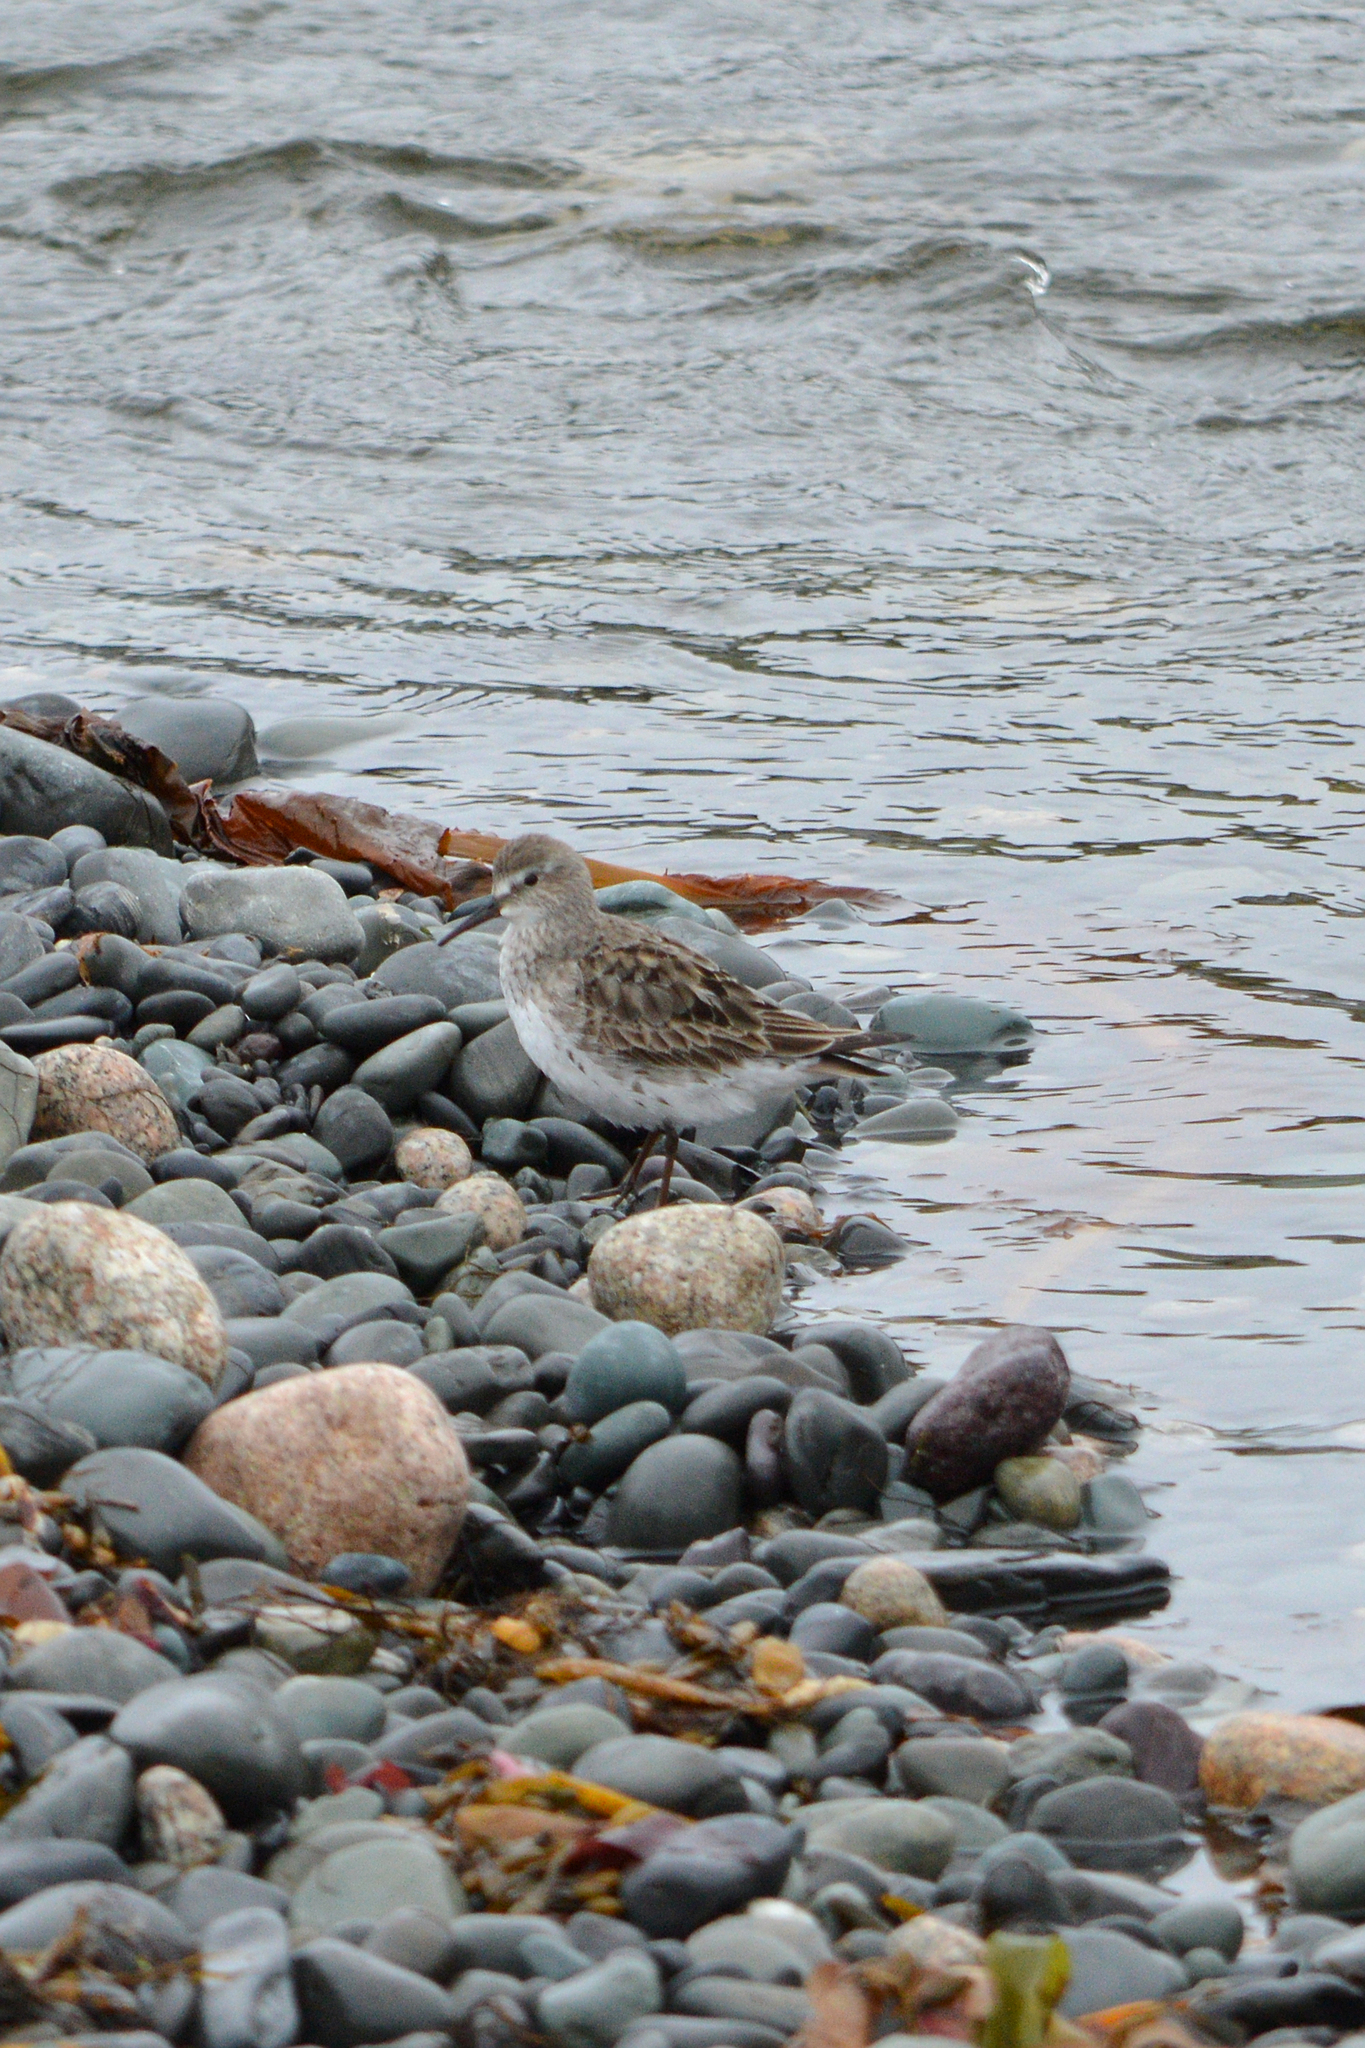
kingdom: Animalia
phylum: Chordata
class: Aves
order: Charadriiformes
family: Scolopacidae
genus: Calidris
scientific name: Calidris fuscicollis
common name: White-rumped sandpiper
